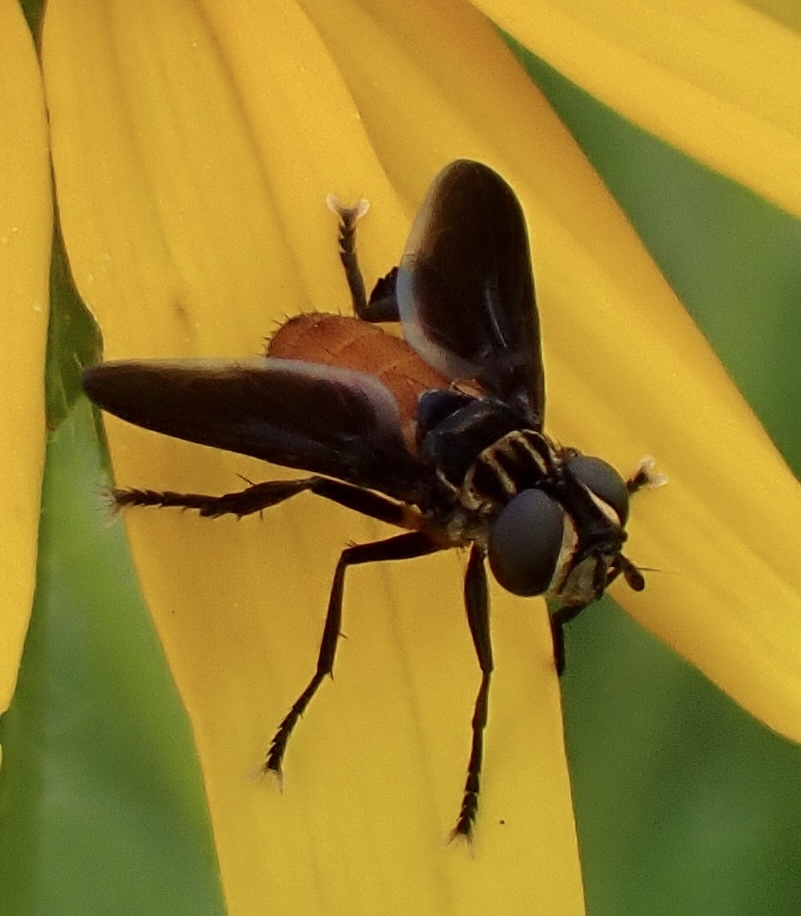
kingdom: Animalia
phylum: Arthropoda
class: Insecta
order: Diptera
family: Tachinidae
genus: Trichopoda
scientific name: Trichopoda pennipes
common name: Tachinid fly
